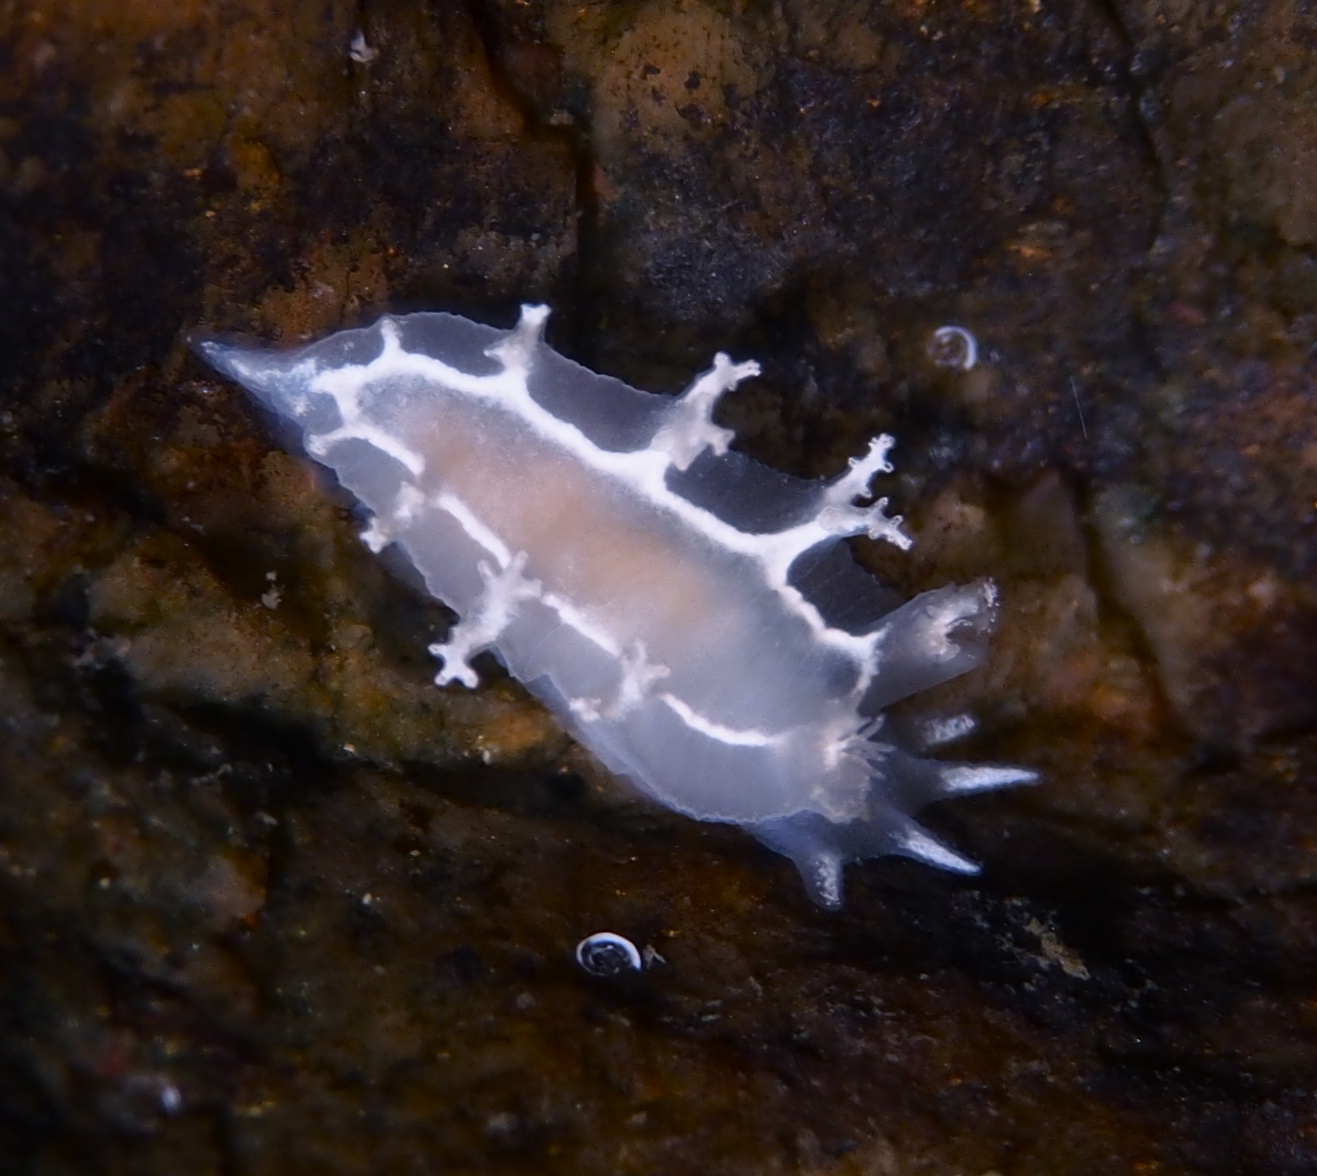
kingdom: Animalia
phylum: Mollusca
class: Gastropoda
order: Nudibranchia
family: Tritoniidae
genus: Duvaucelia
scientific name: Duvaucelia lineata
